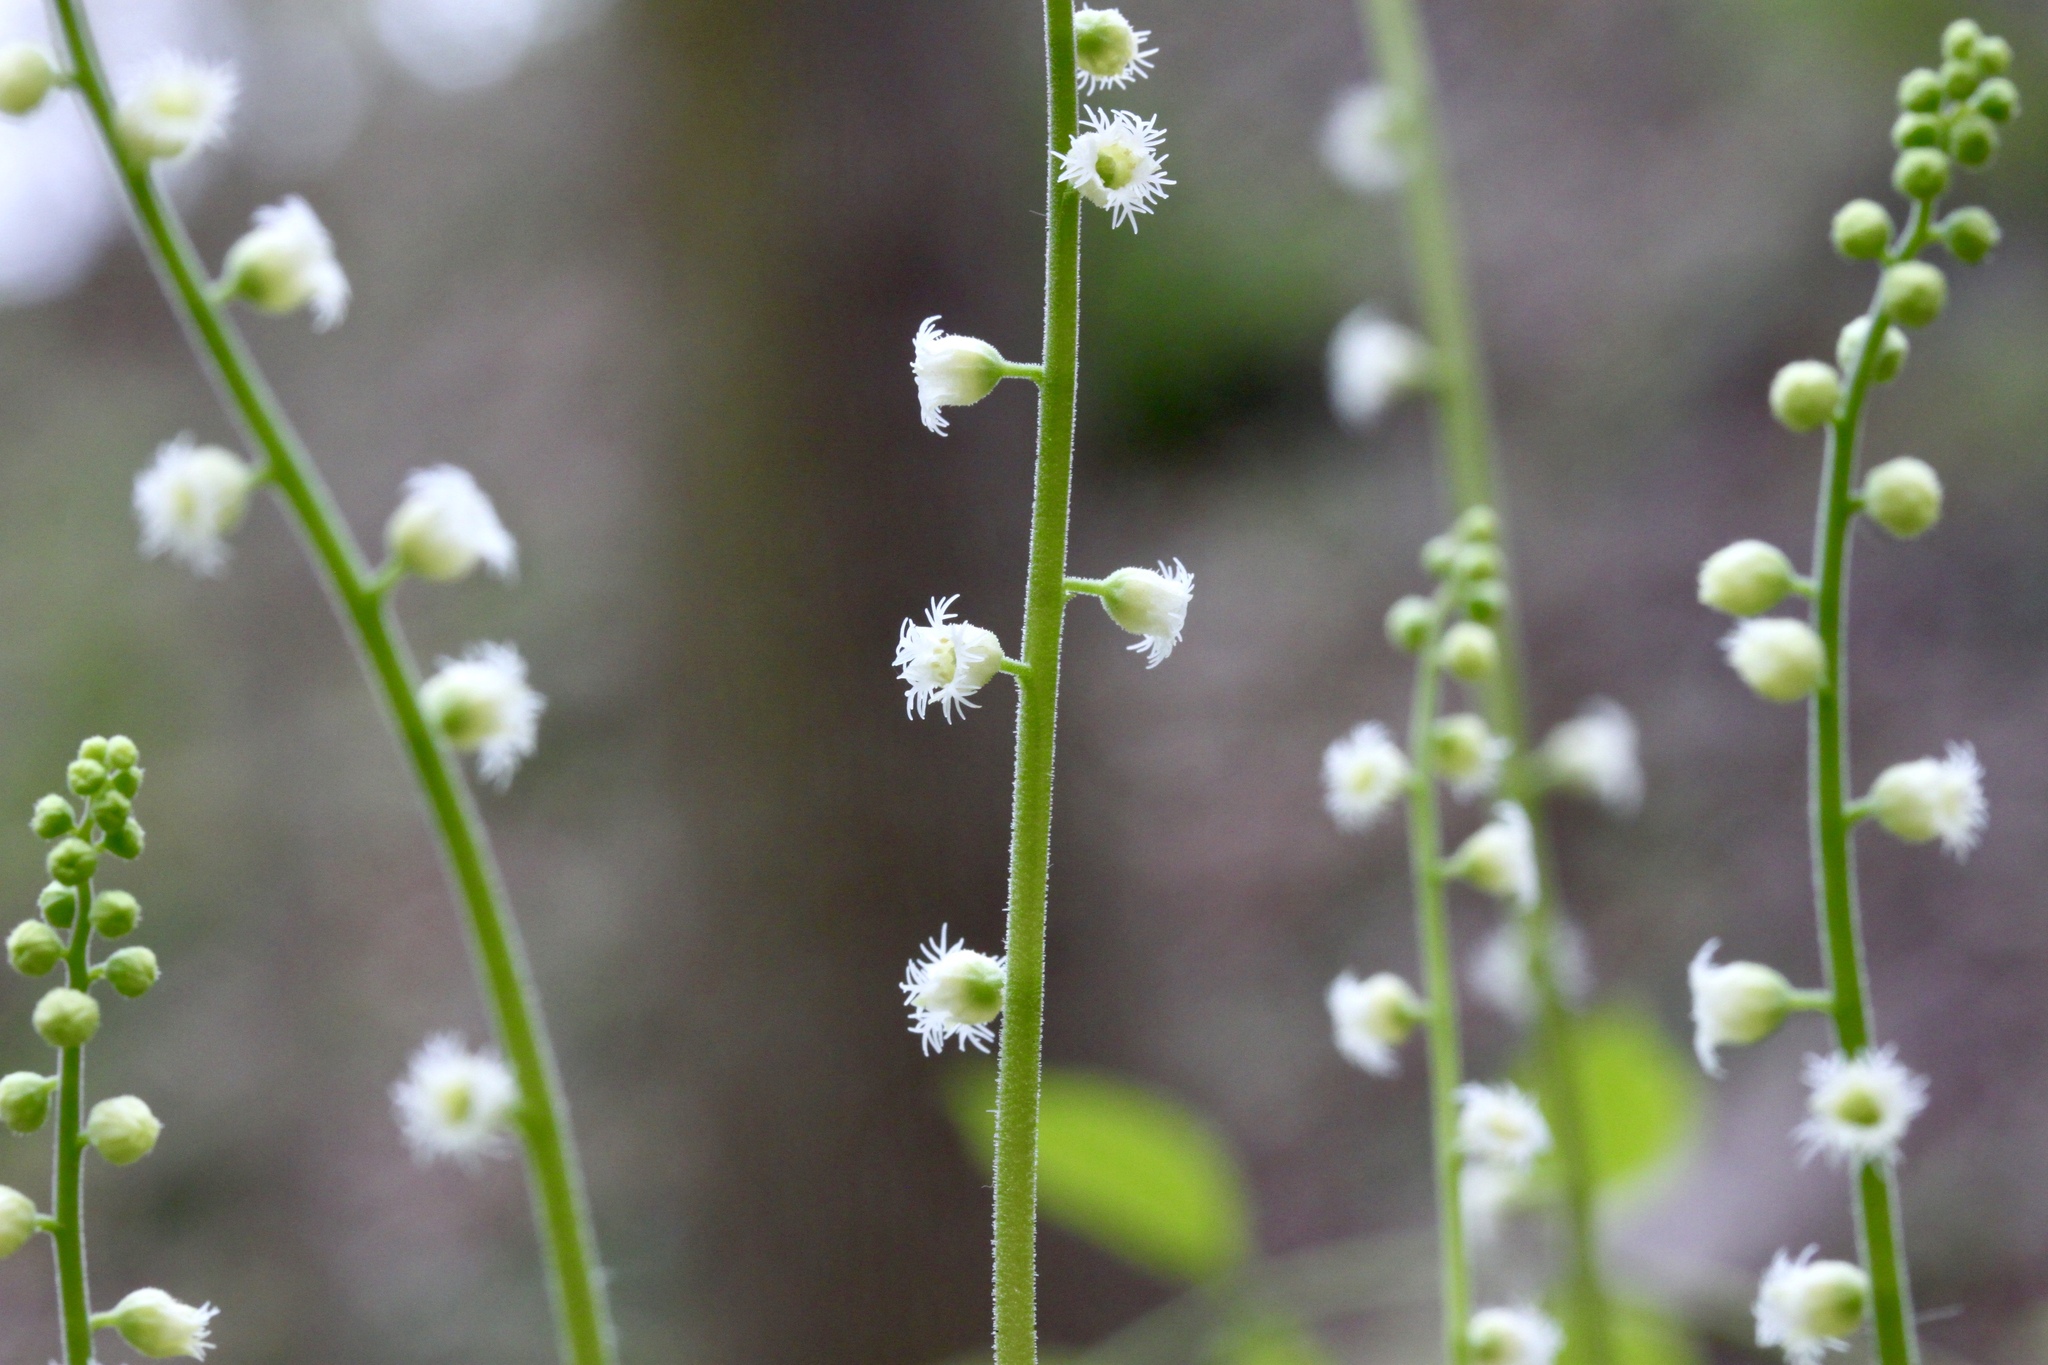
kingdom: Plantae
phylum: Tracheophyta
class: Magnoliopsida
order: Saxifragales
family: Saxifragaceae
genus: Mitella
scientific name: Mitella diphylla
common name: Coolwort
